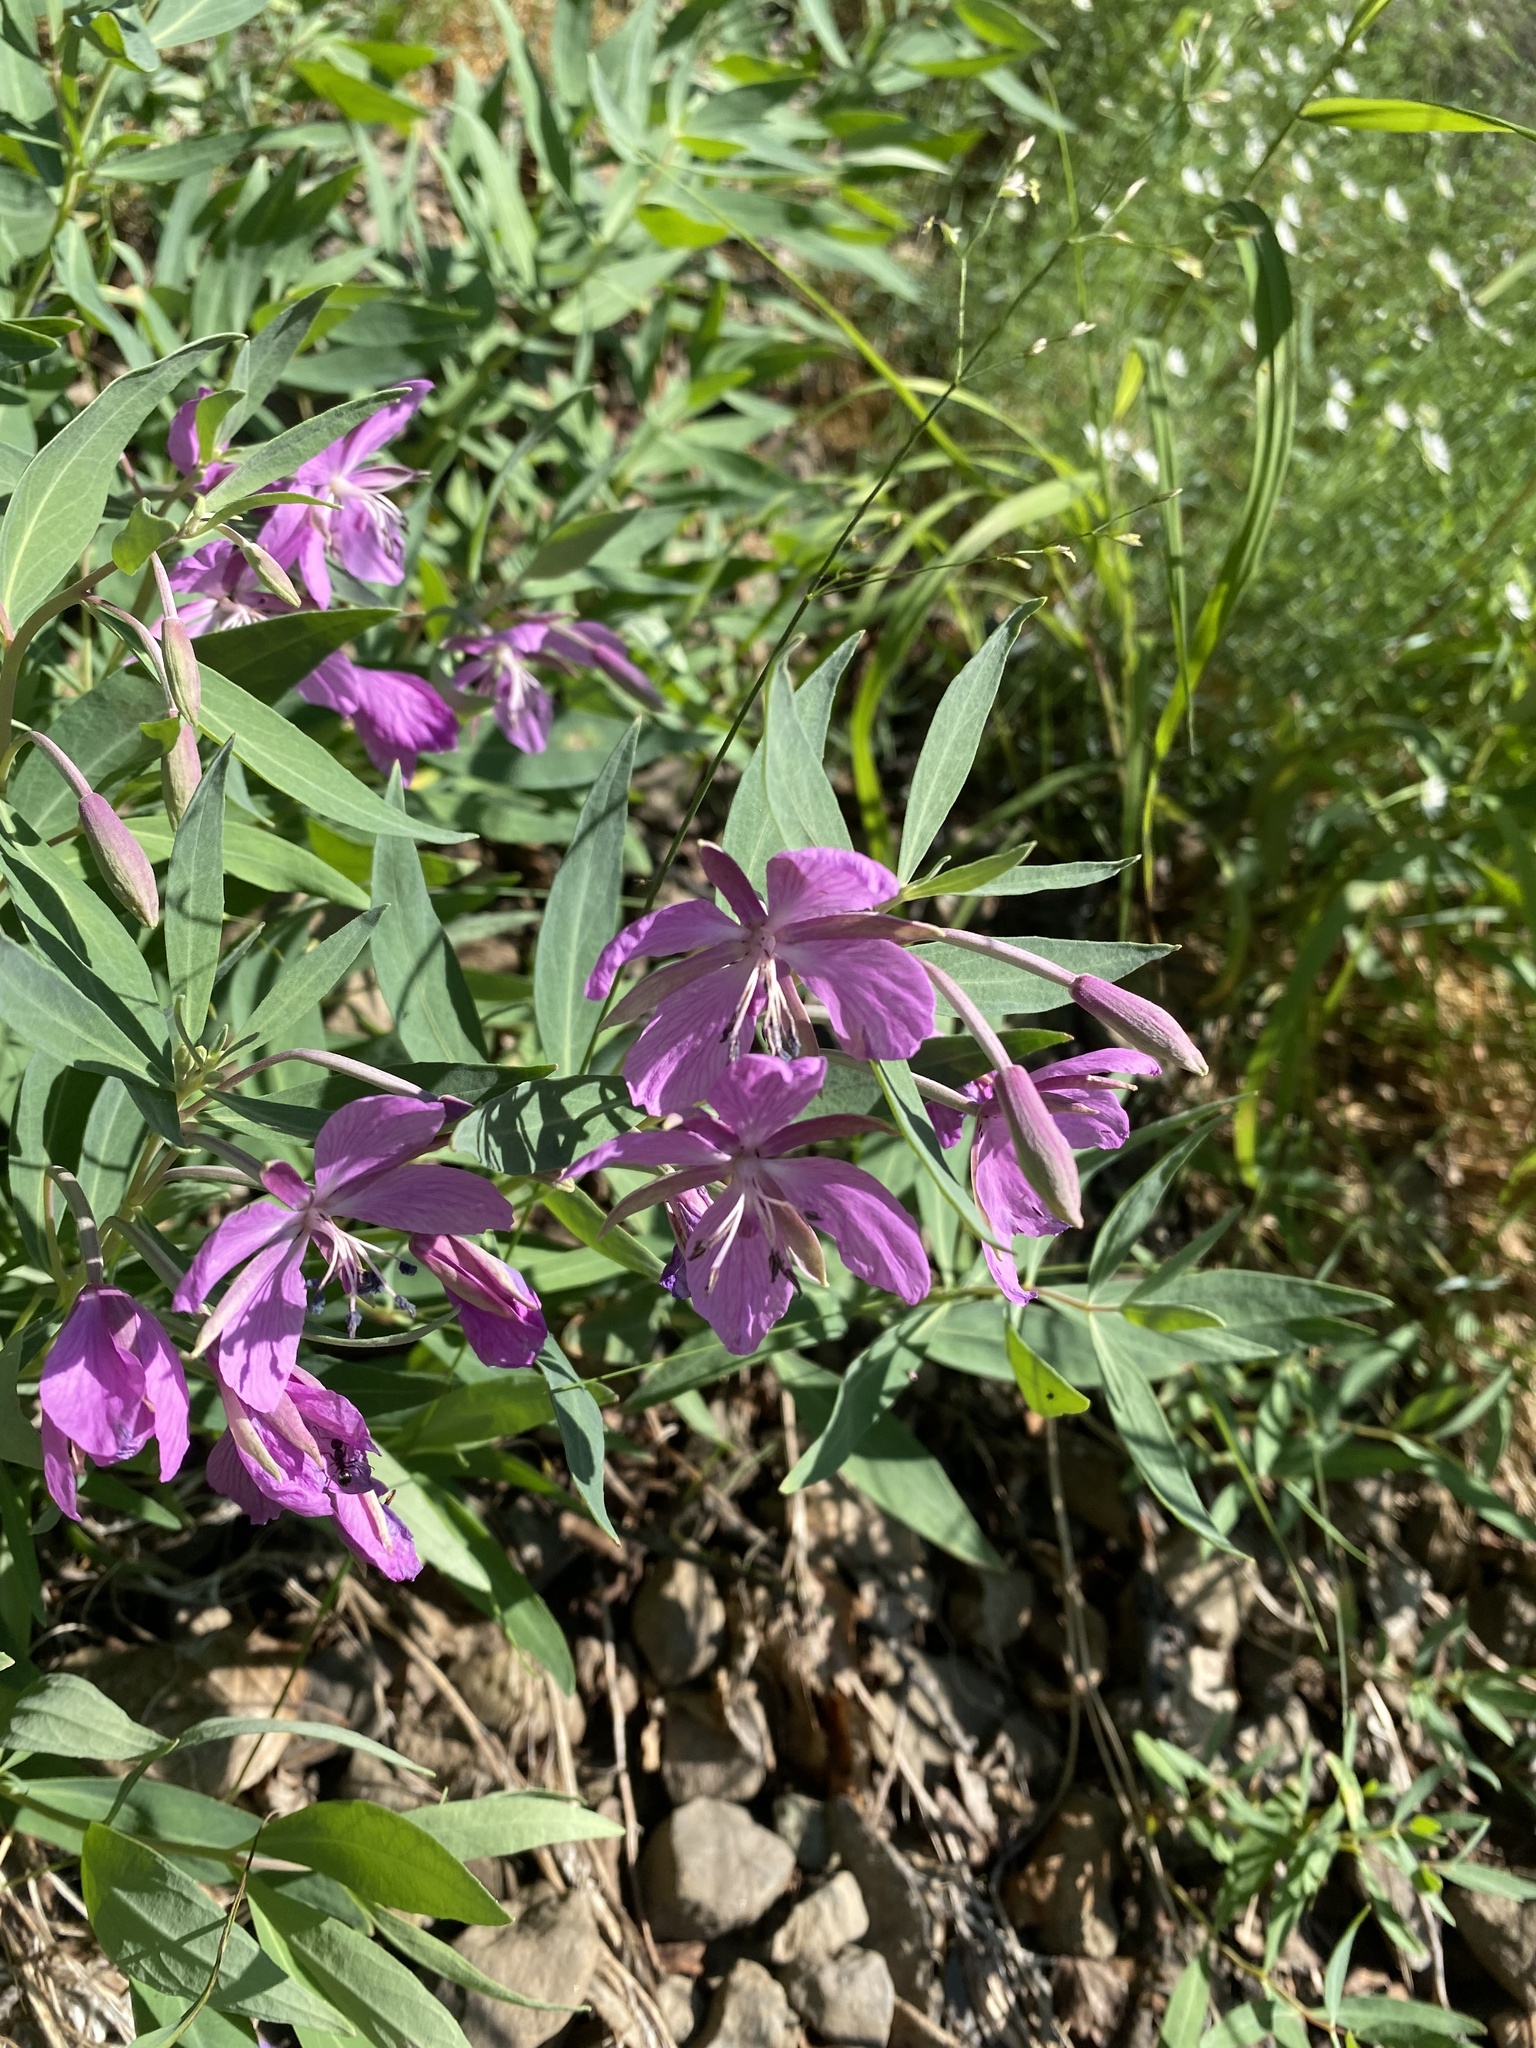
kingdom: Plantae
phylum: Tracheophyta
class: Magnoliopsida
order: Myrtales
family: Onagraceae
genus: Chamaenerion
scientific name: Chamaenerion latifolium
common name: Dwarf fireweed
